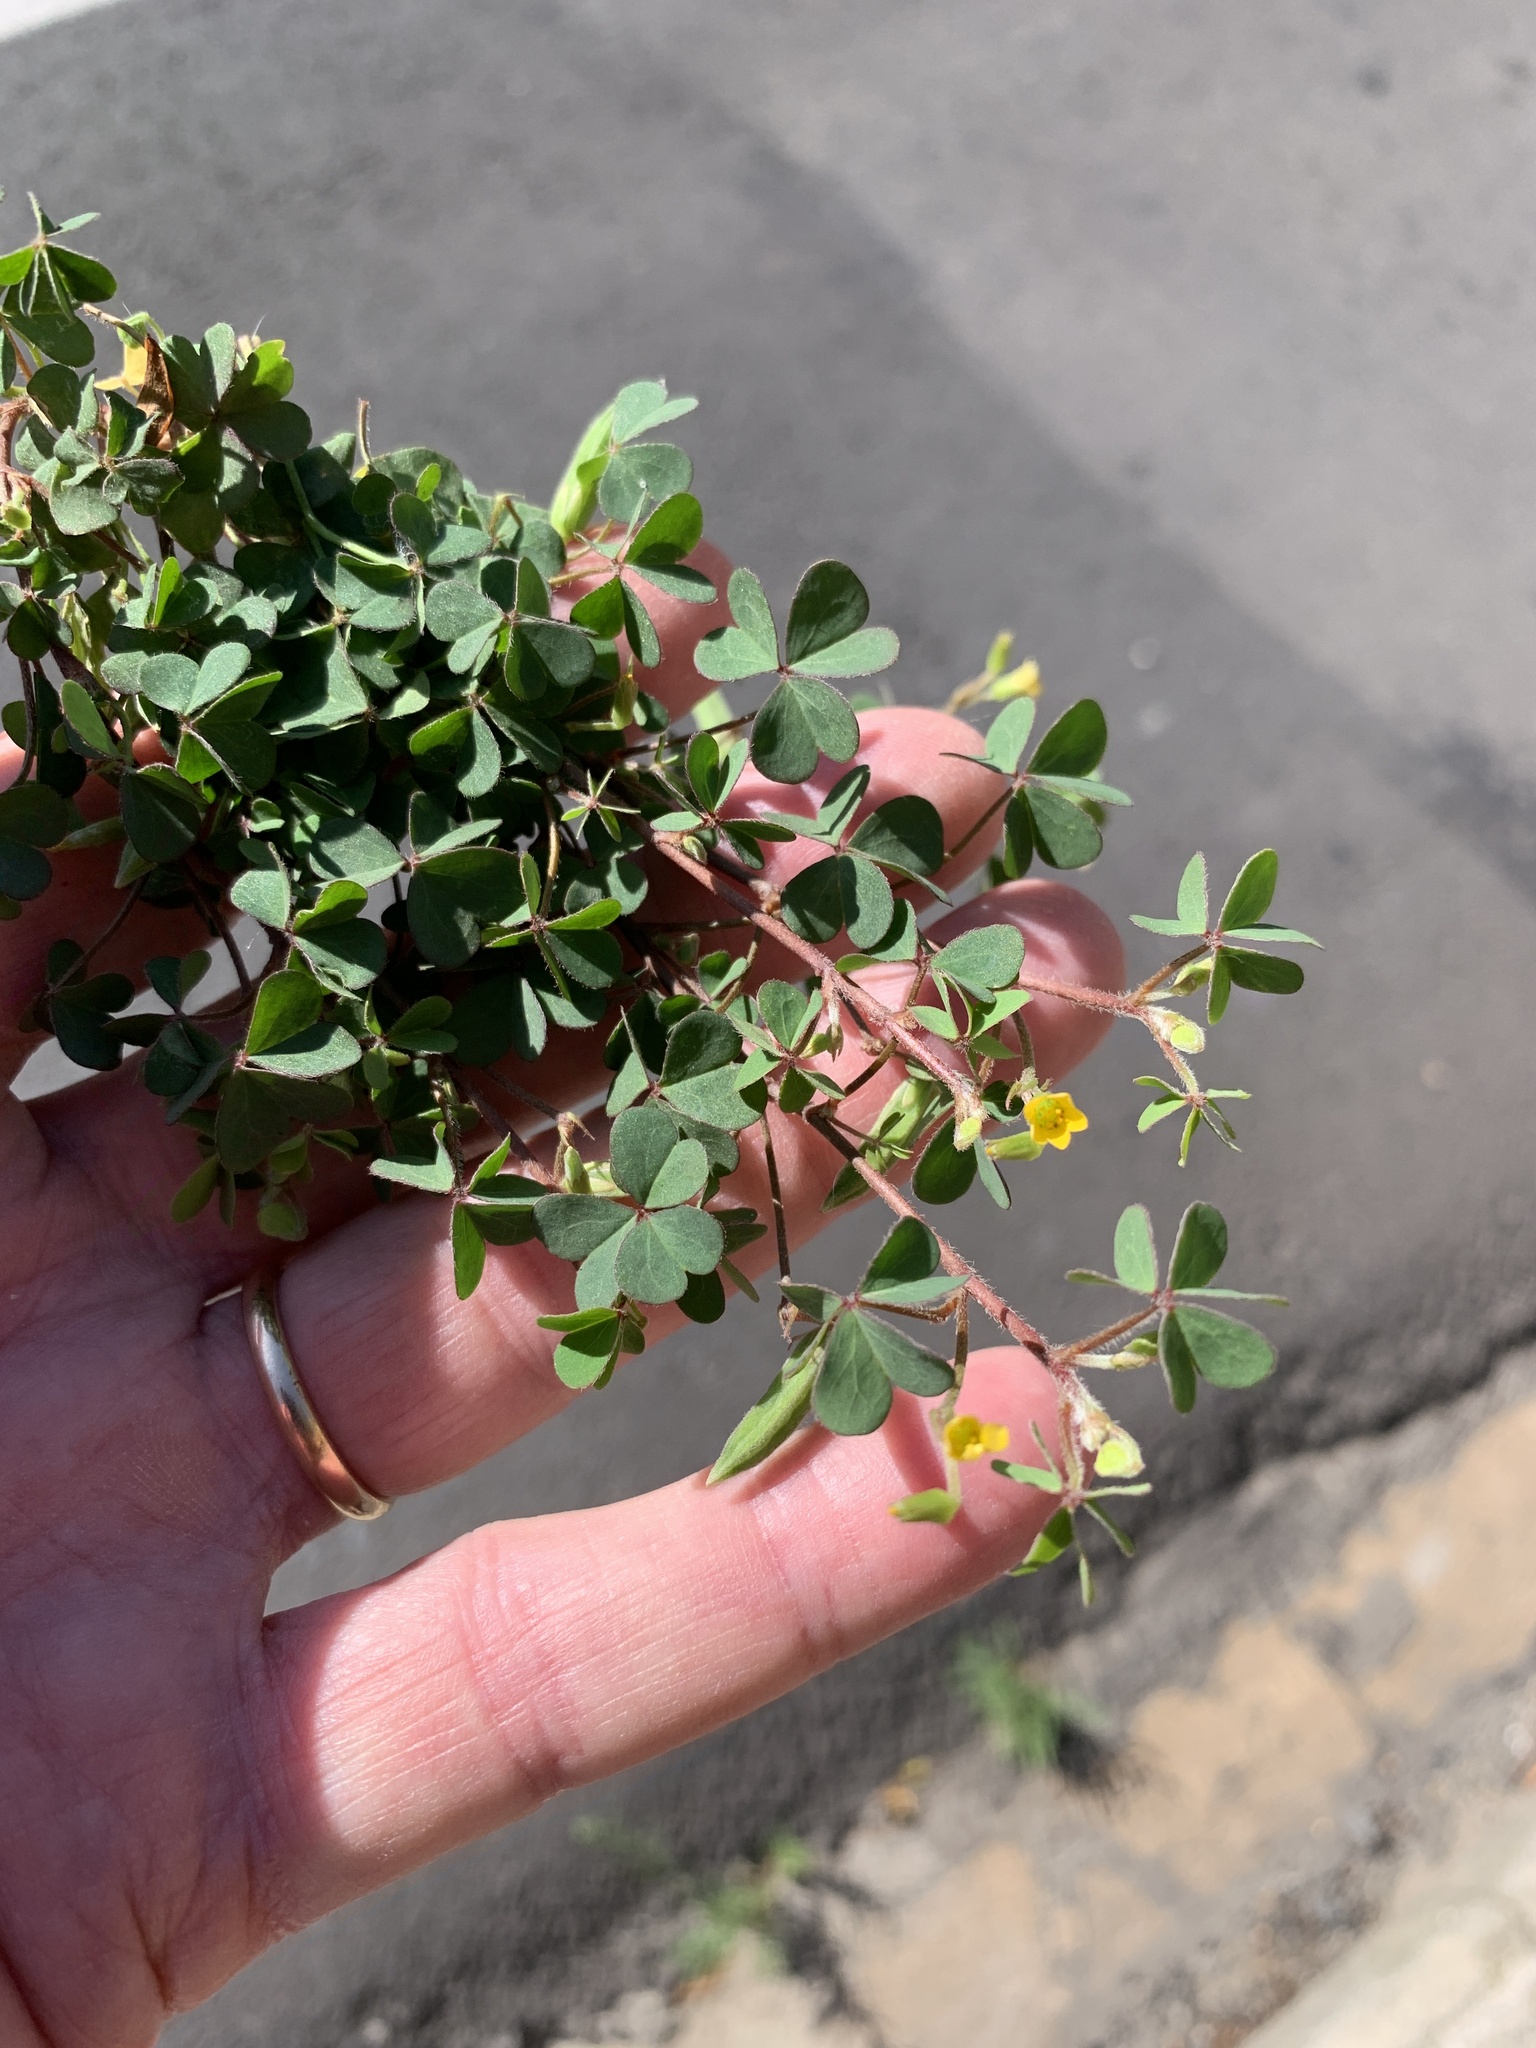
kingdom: Plantae
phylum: Tracheophyta
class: Magnoliopsida
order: Oxalidales
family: Oxalidaceae
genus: Oxalis
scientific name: Oxalis corniculata
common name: Procumbent yellow-sorrel
